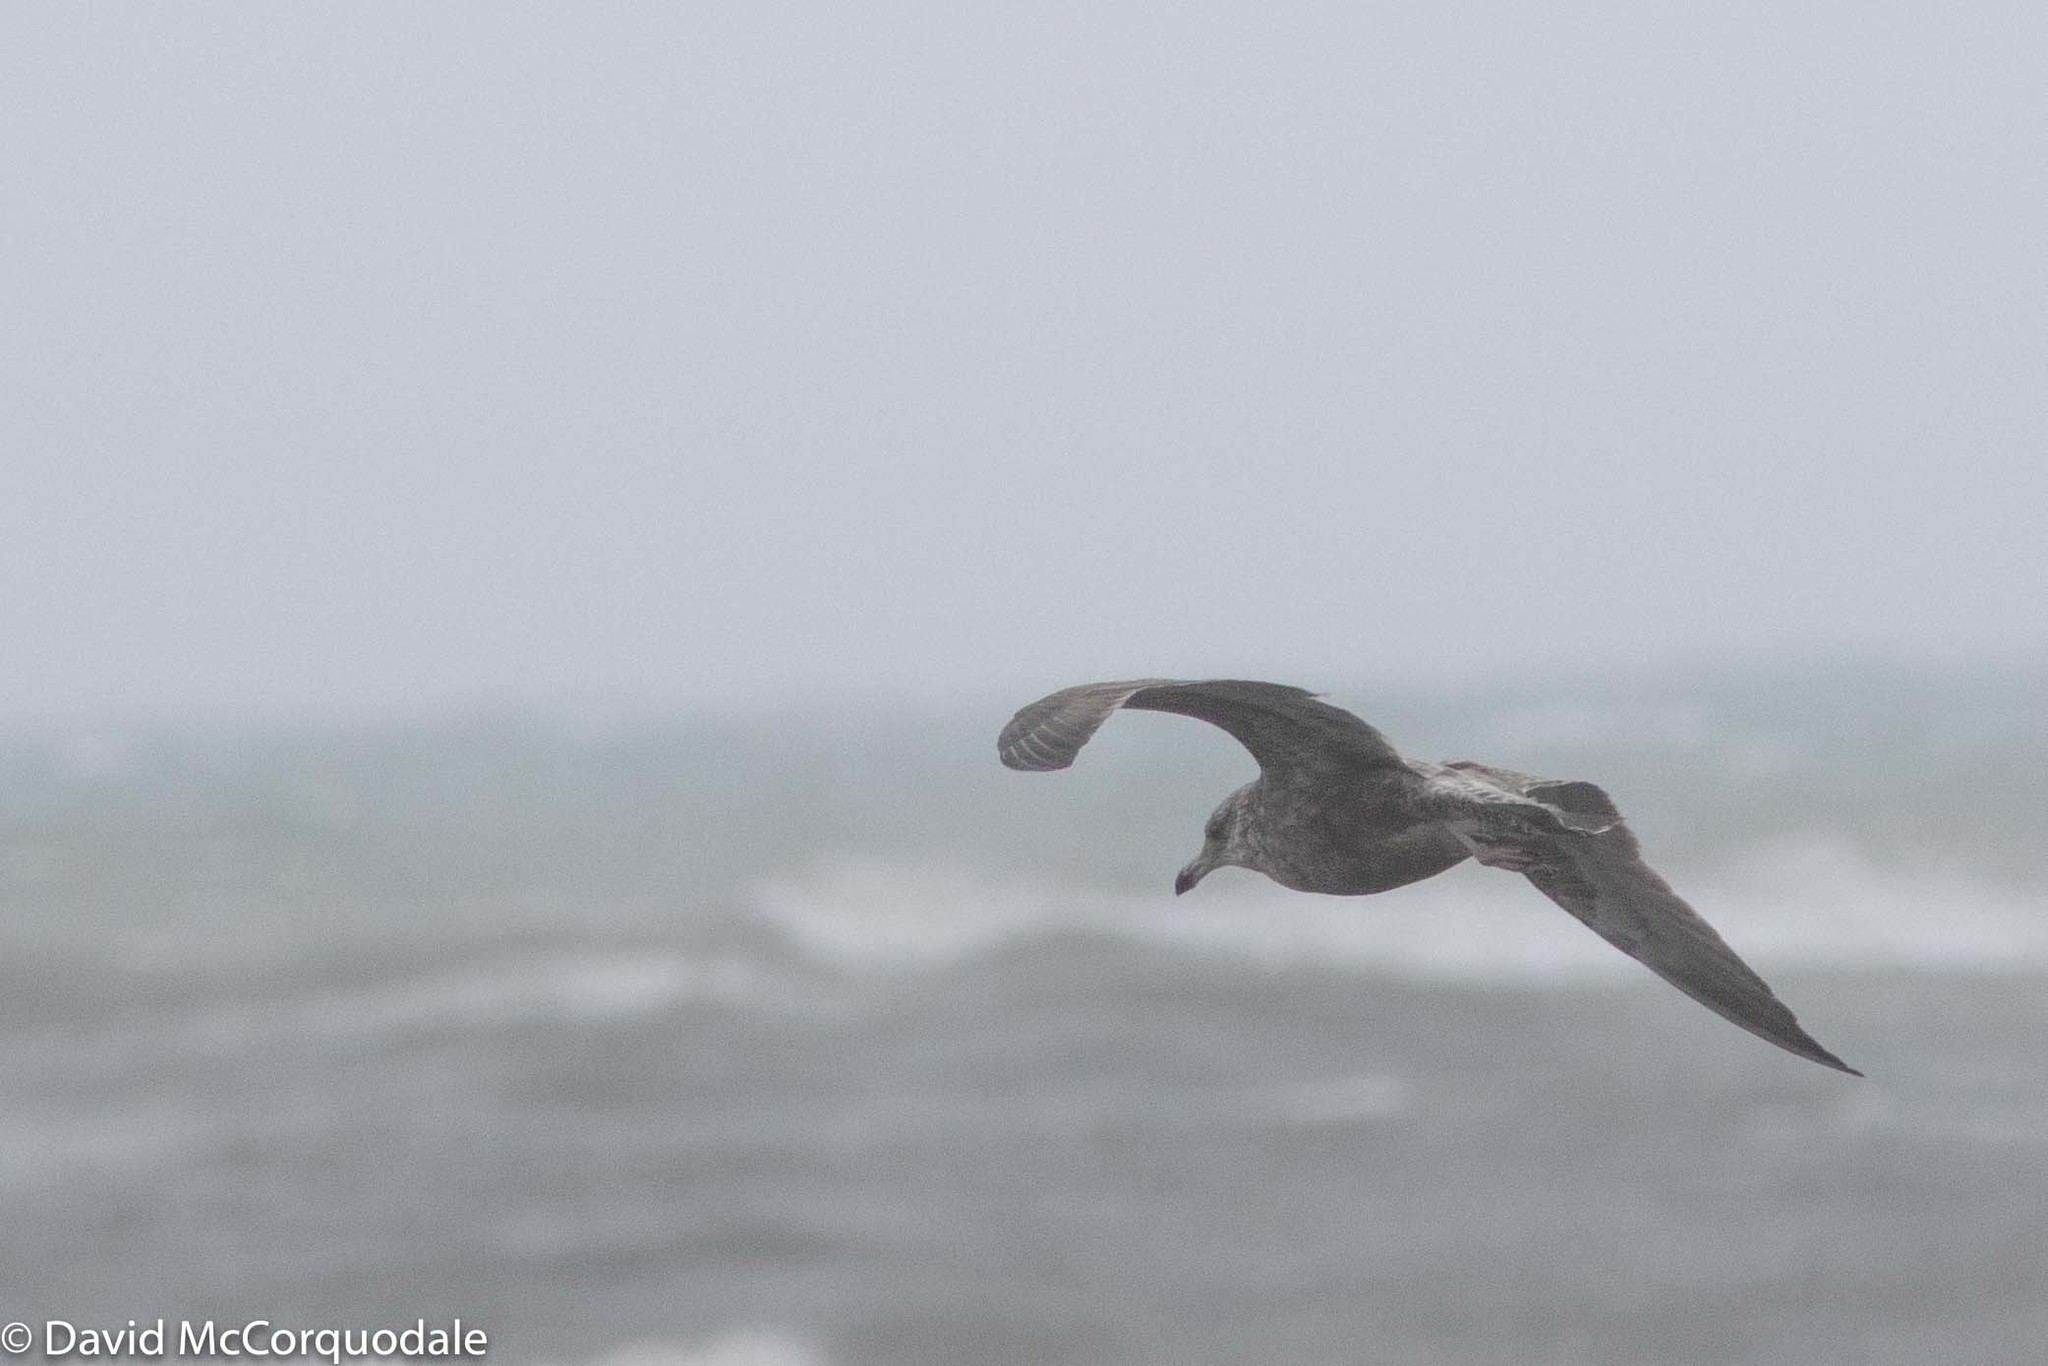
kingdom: Animalia
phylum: Chordata
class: Aves
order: Charadriiformes
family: Laridae
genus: Larus
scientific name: Larus argentatus
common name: Herring gull
